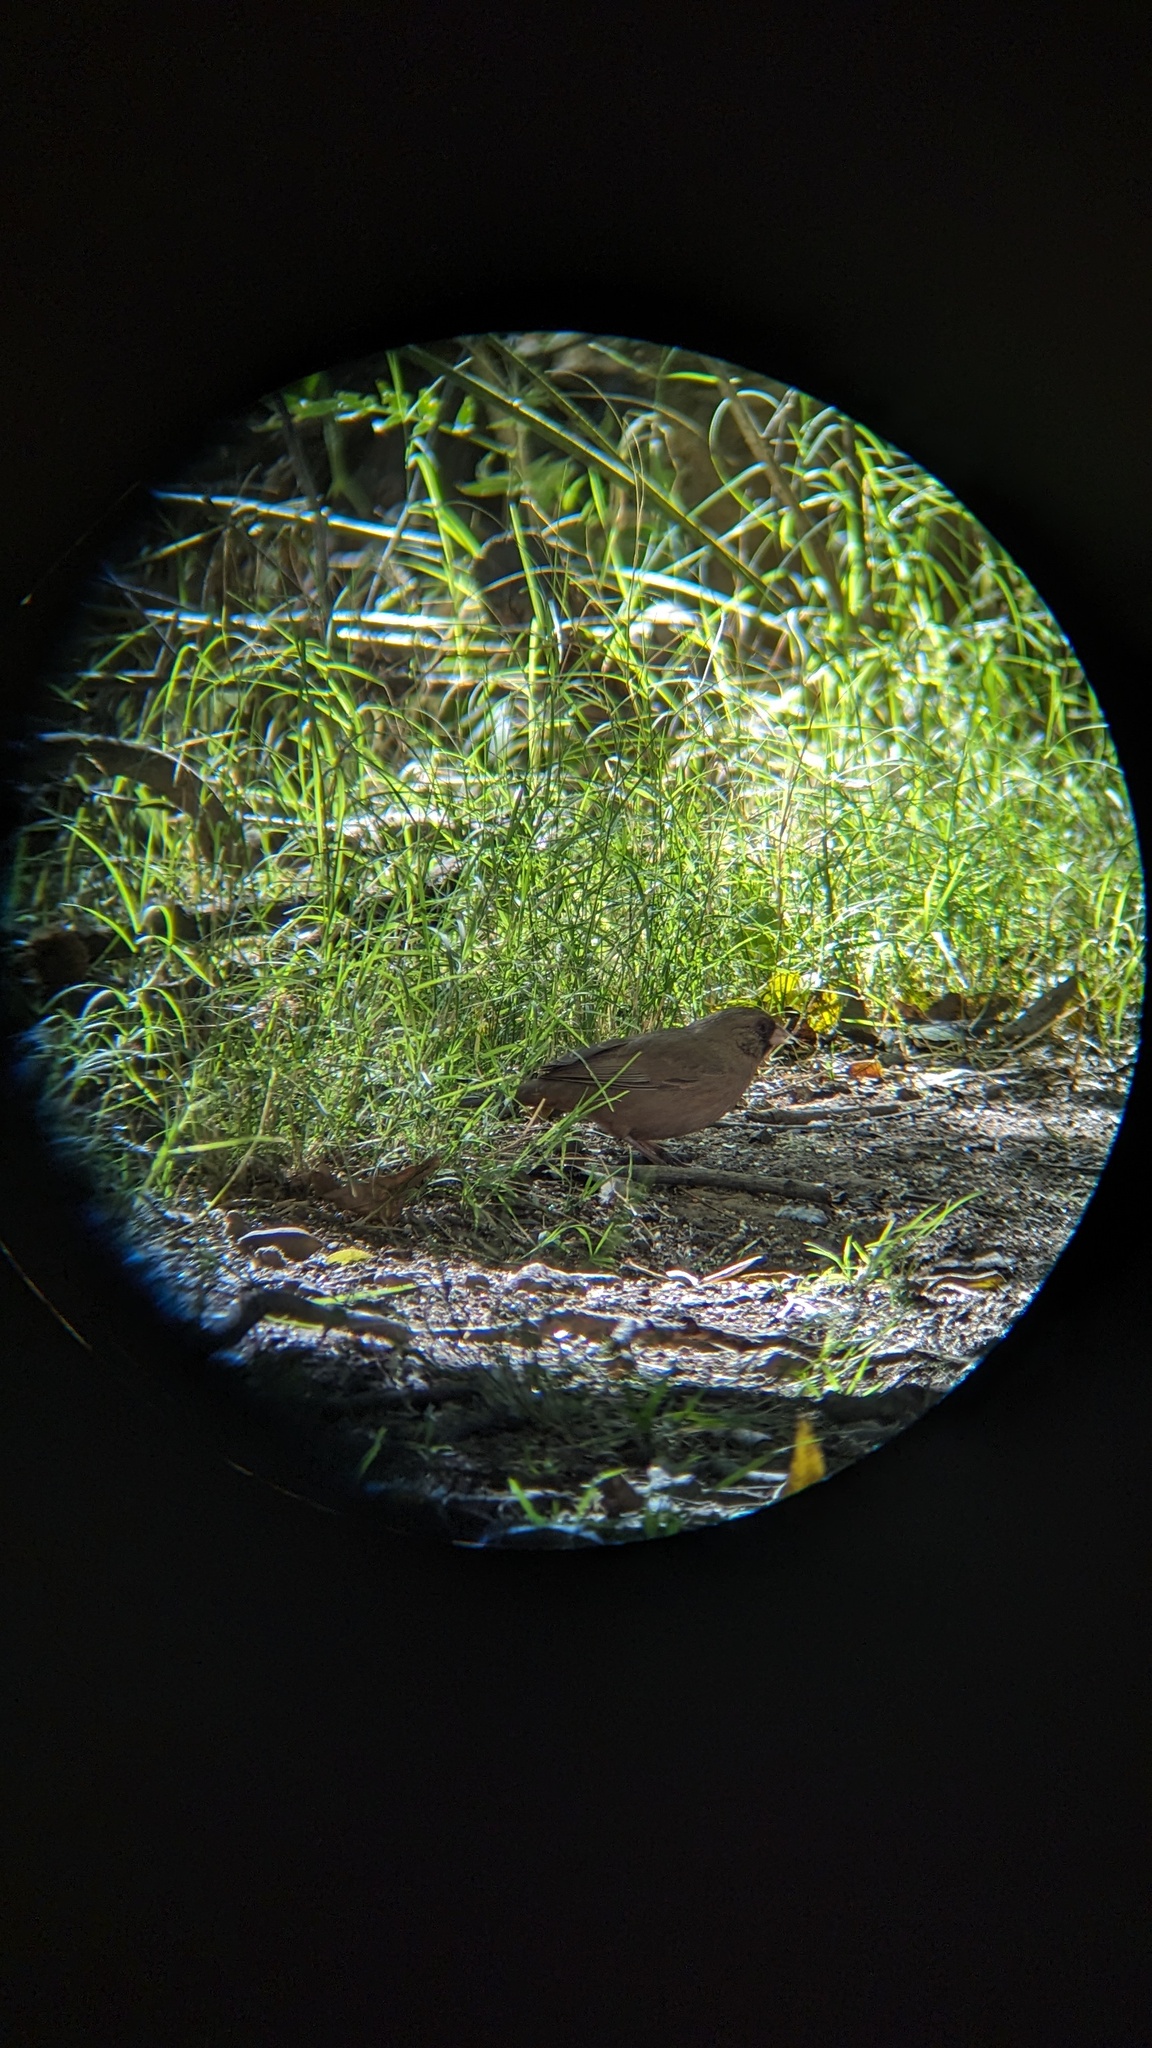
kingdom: Animalia
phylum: Chordata
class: Aves
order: Passeriformes
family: Passerellidae
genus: Melozone
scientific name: Melozone aberti
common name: Abert's towhee
